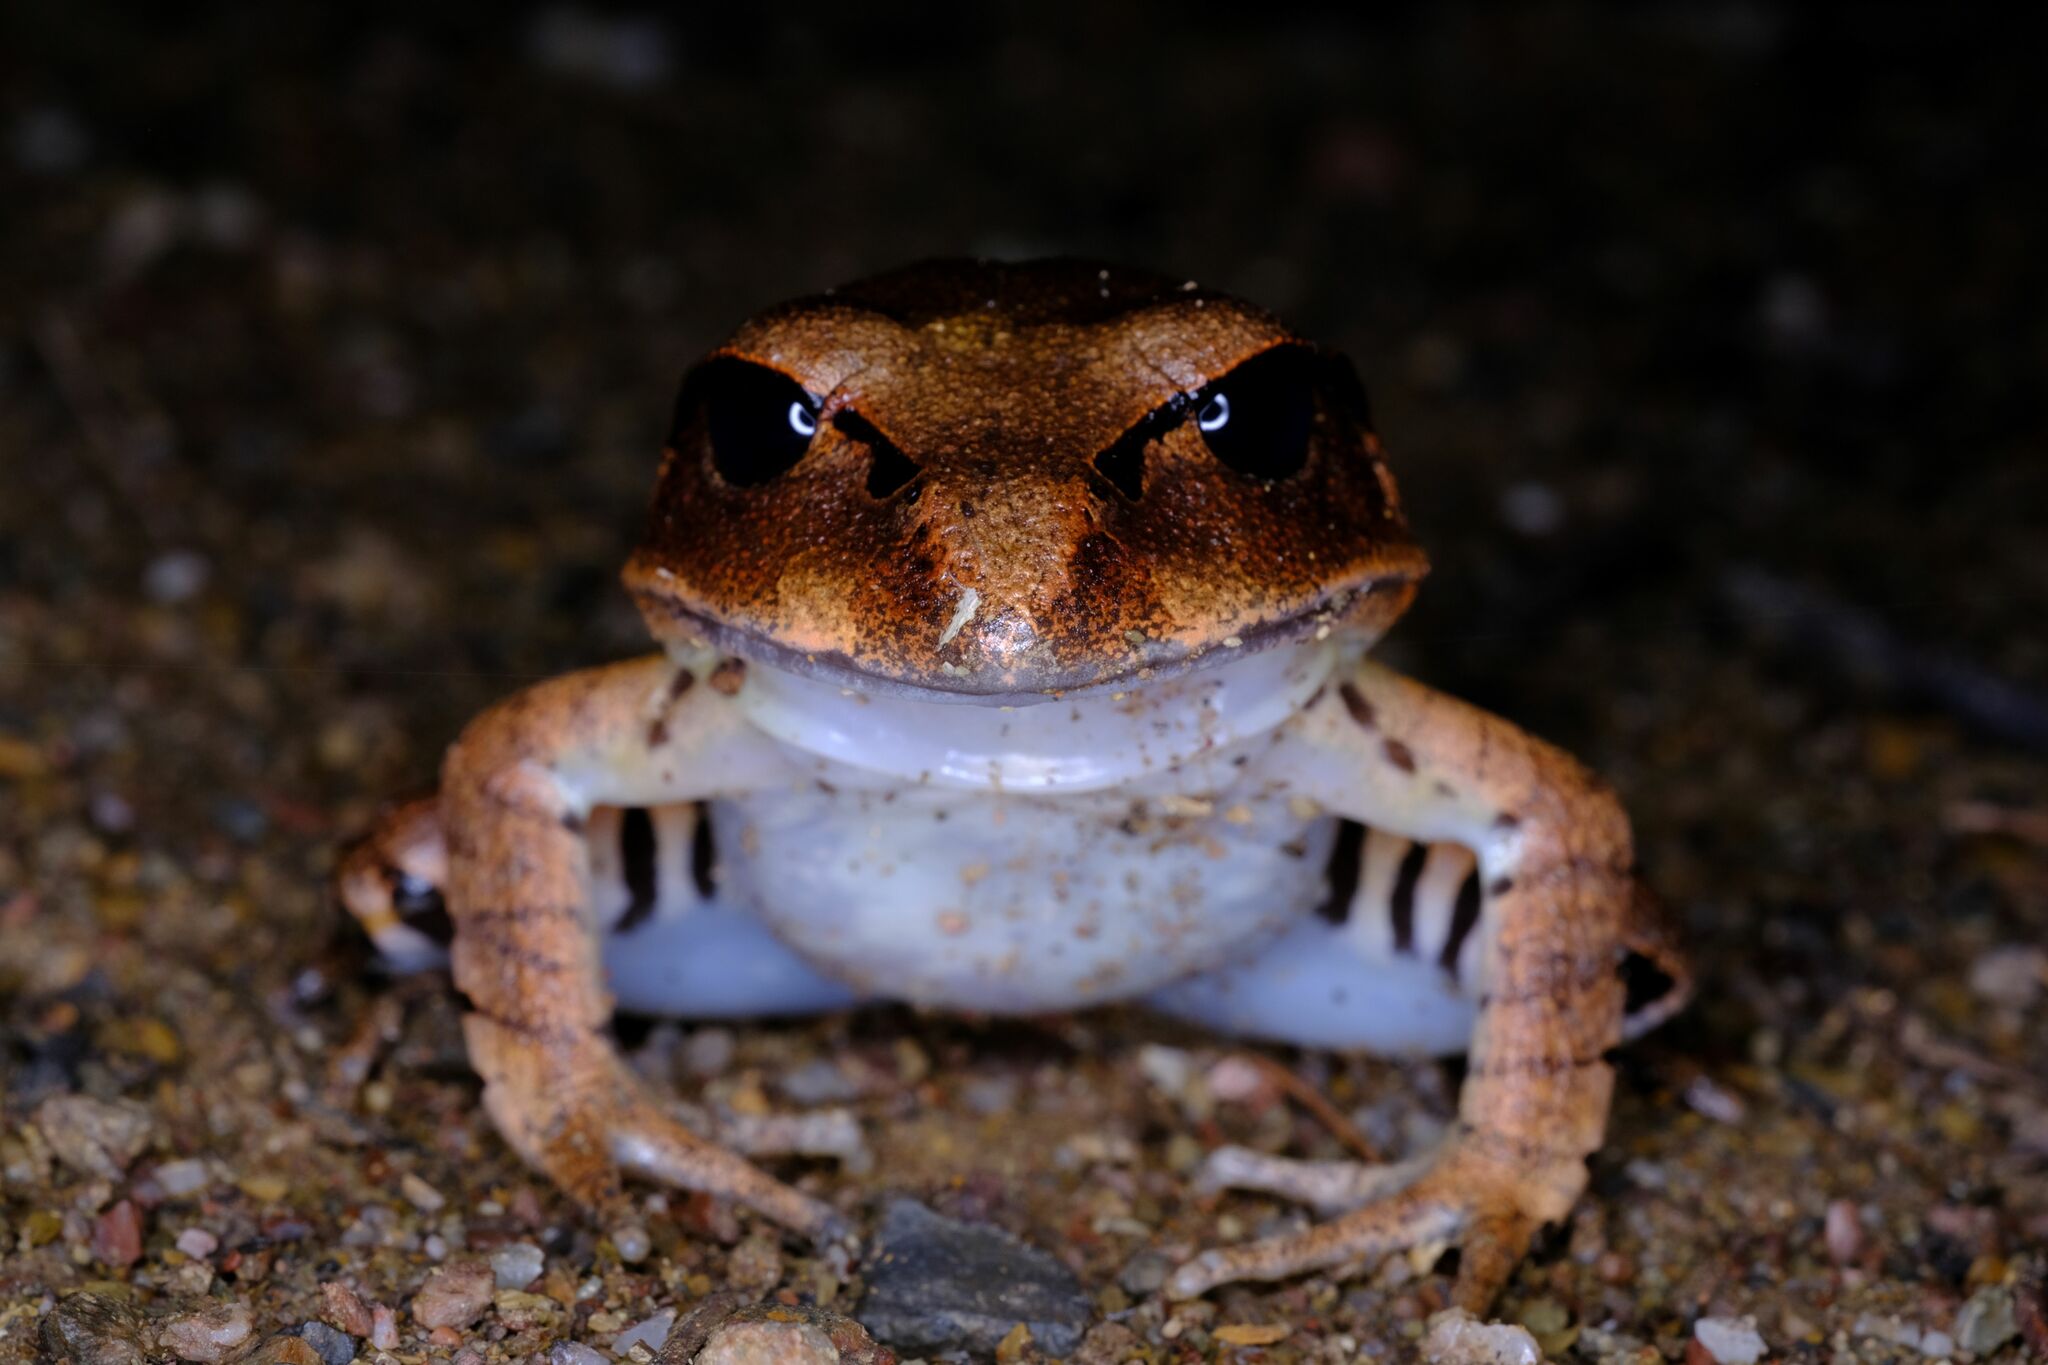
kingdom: Animalia
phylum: Chordata
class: Amphibia
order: Anura
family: Myobatrachidae
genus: Mixophyes
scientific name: Mixophyes fasciolatus
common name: Great barred river-frog
